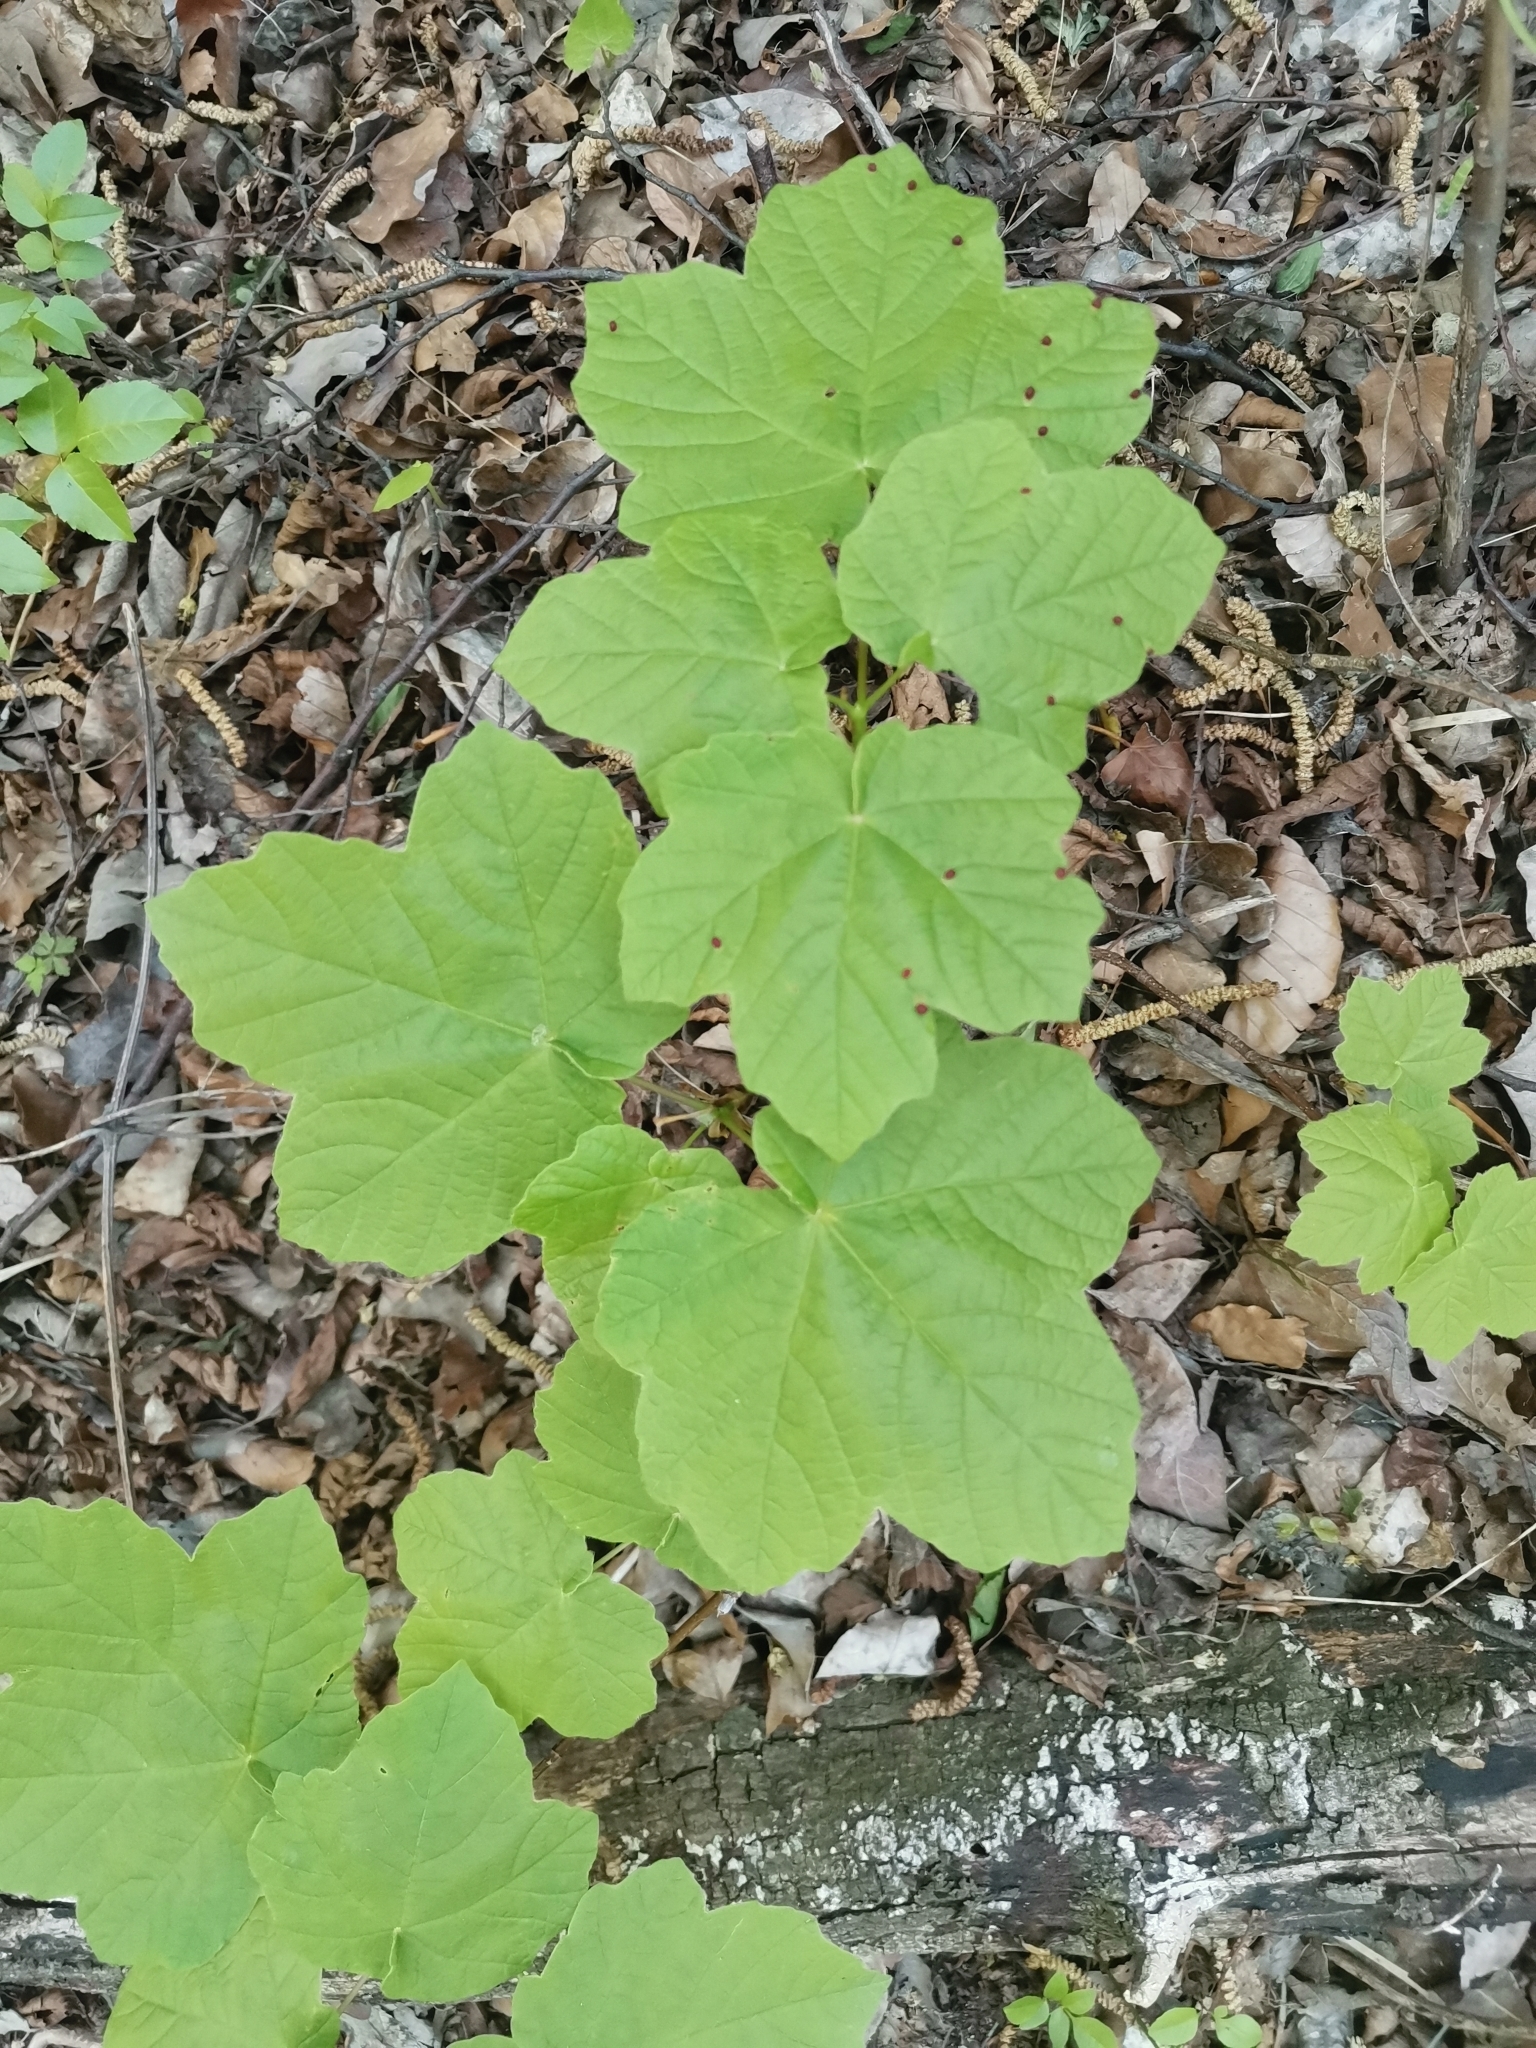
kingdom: Plantae
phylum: Tracheophyta
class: Magnoliopsida
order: Sapindales
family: Sapindaceae
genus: Acer
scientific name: Acer obtusatum
